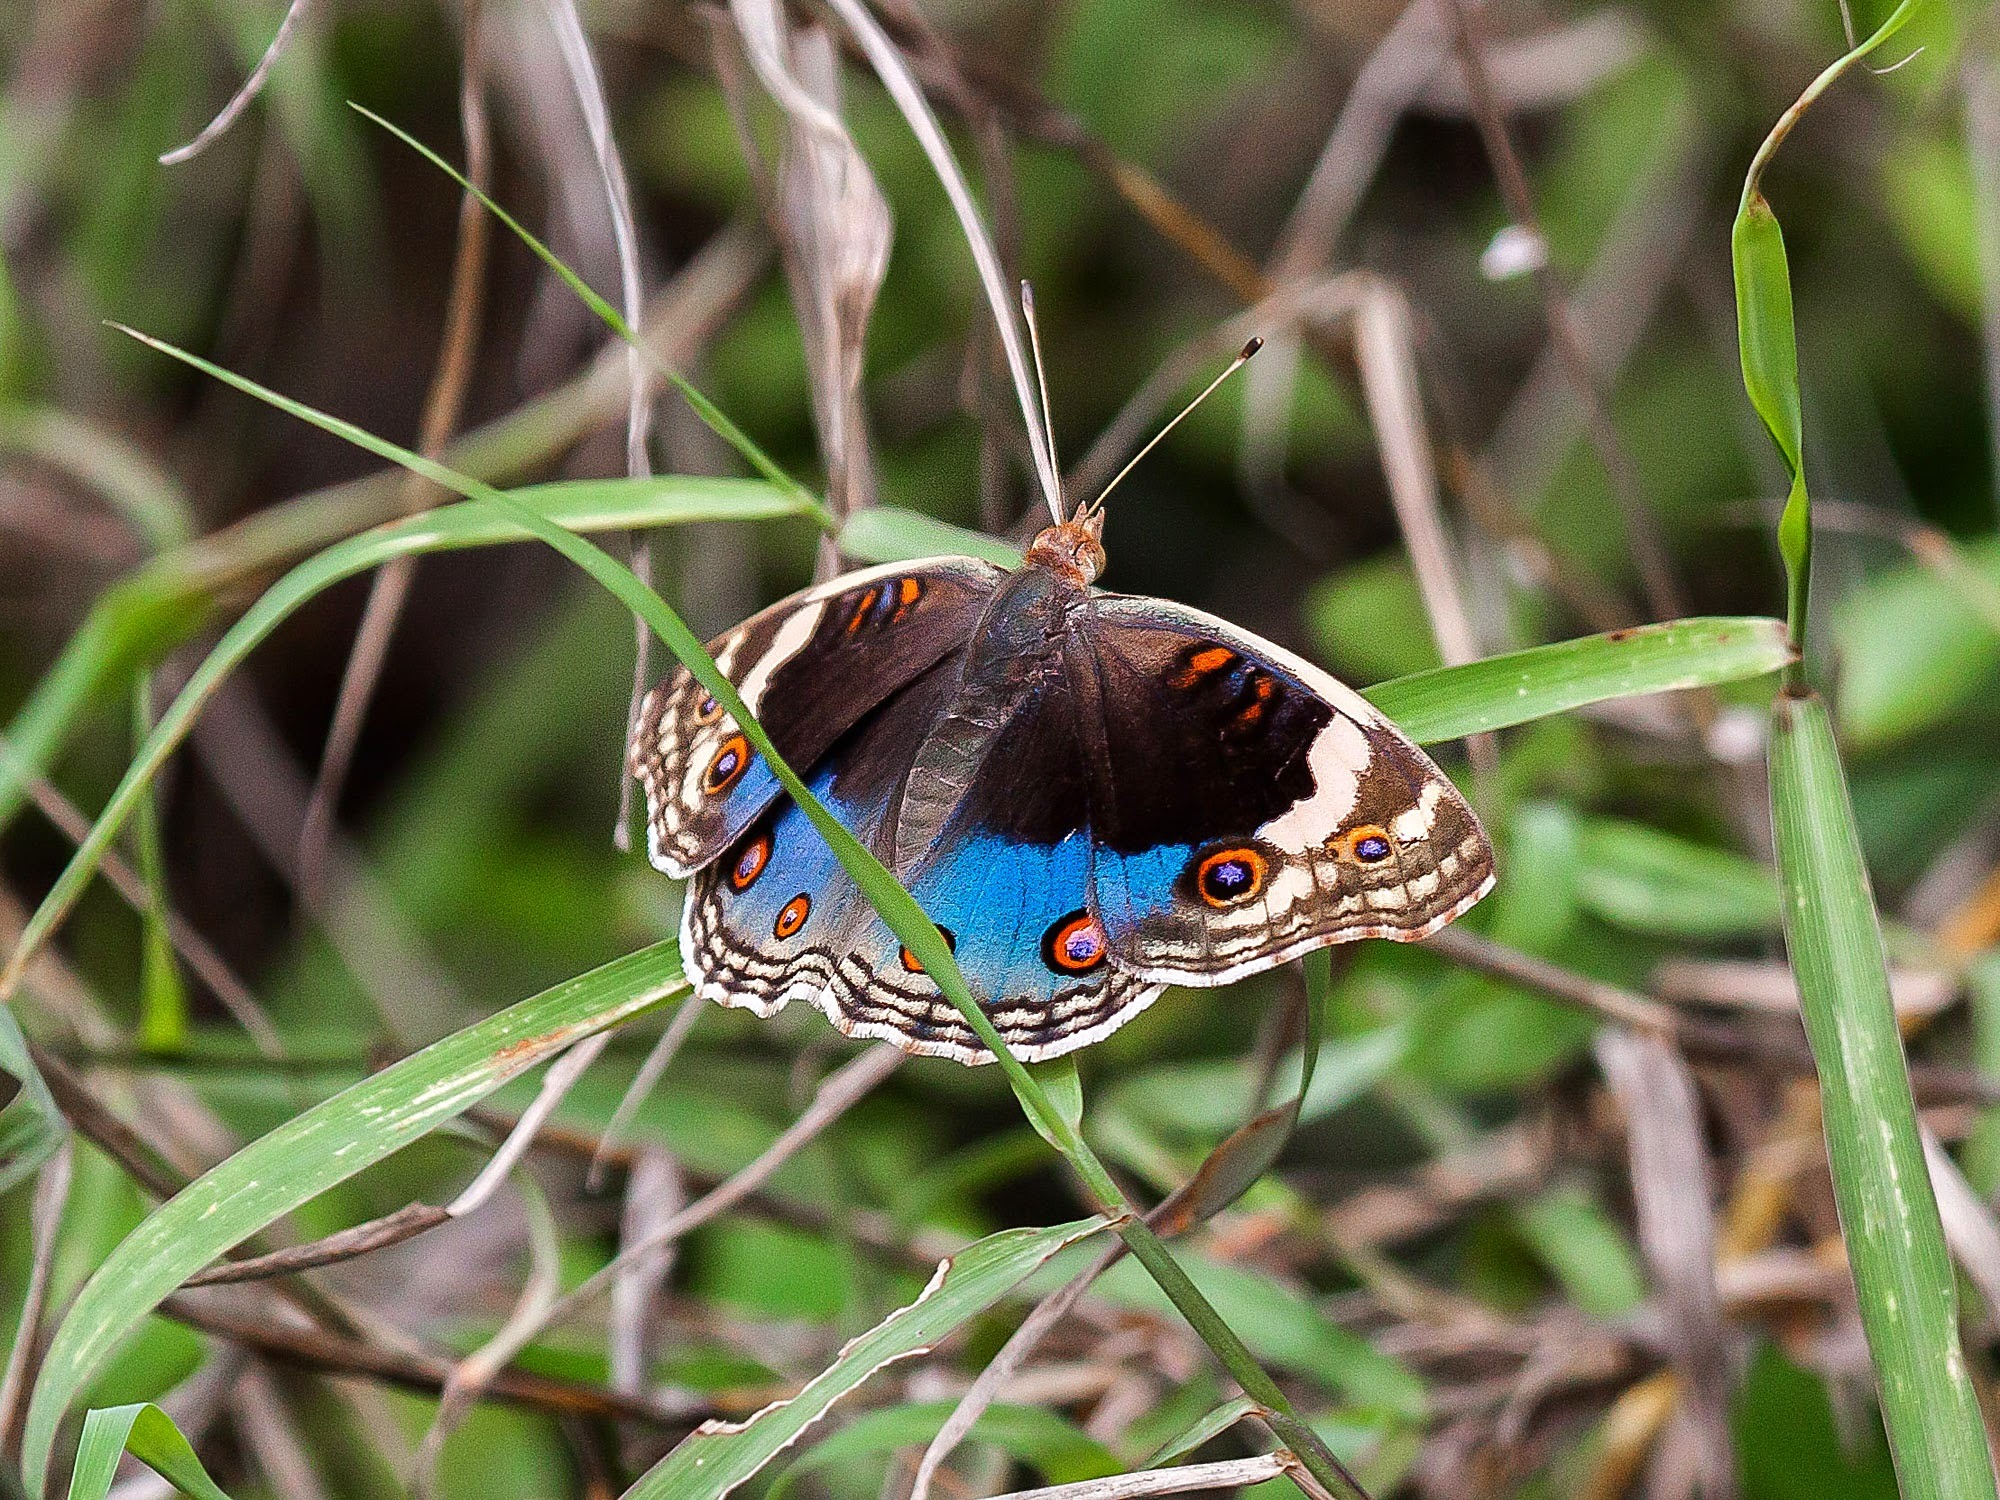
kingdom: Animalia
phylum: Arthropoda
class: Insecta
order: Lepidoptera
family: Nymphalidae
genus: Junonia
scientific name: Junonia orithya
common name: Blue pansy
